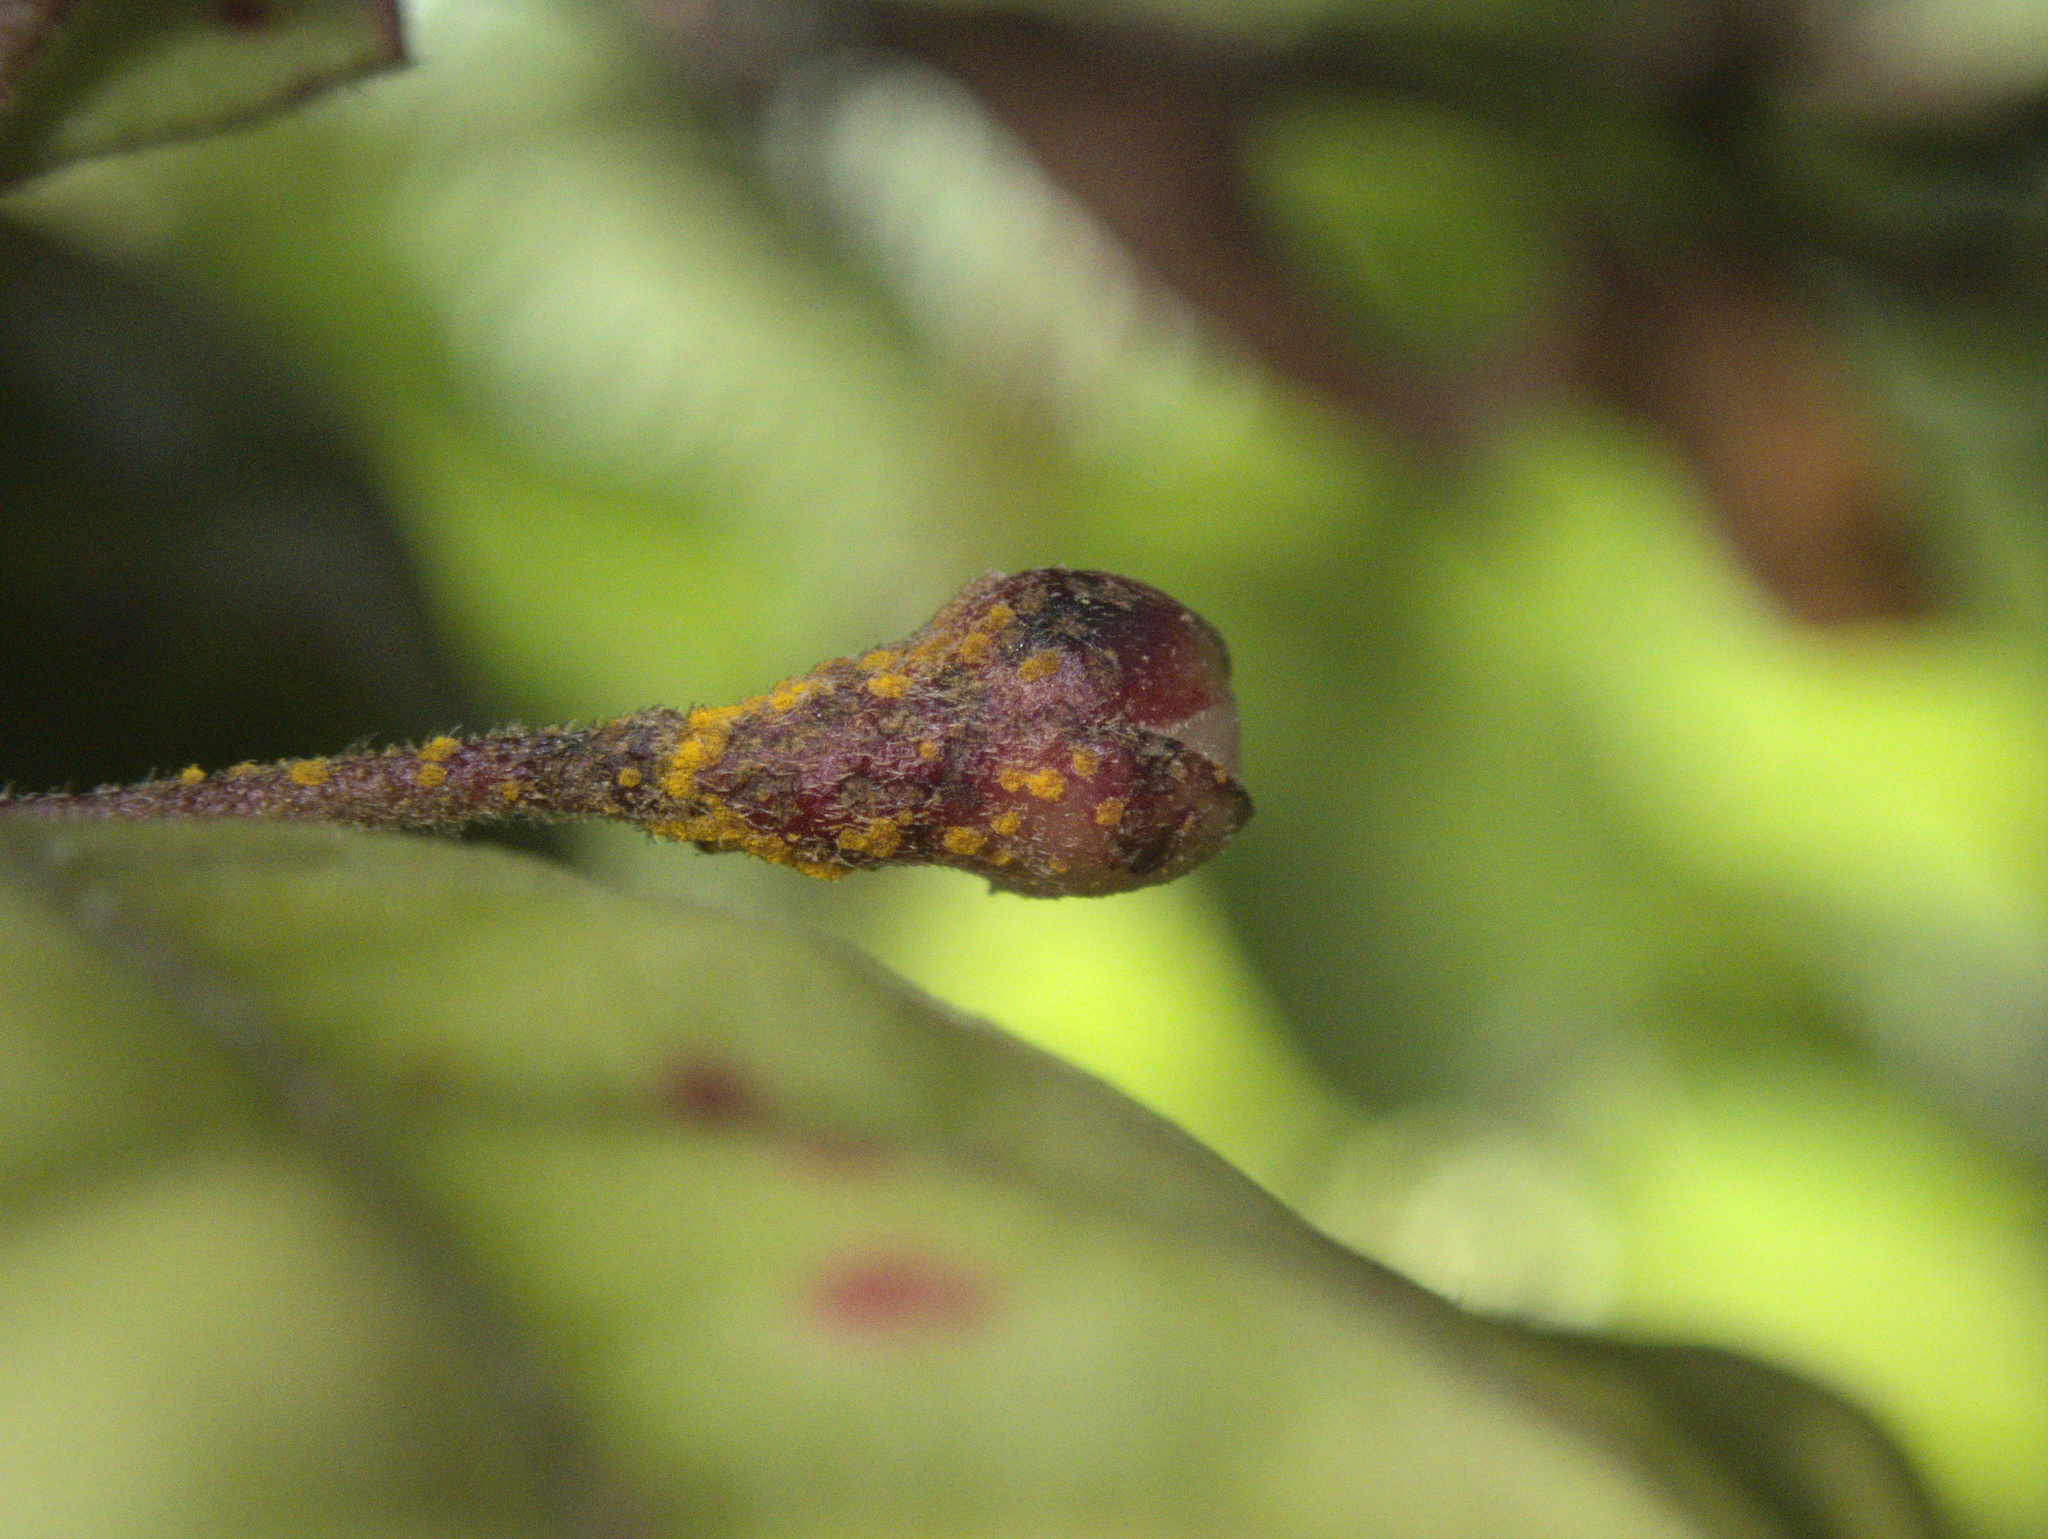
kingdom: Fungi
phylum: Basidiomycota
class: Pucciniomycetes
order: Pucciniales
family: Sphaerophragmiaceae
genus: Austropuccinia
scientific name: Austropuccinia psidii
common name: Myrtle rust
